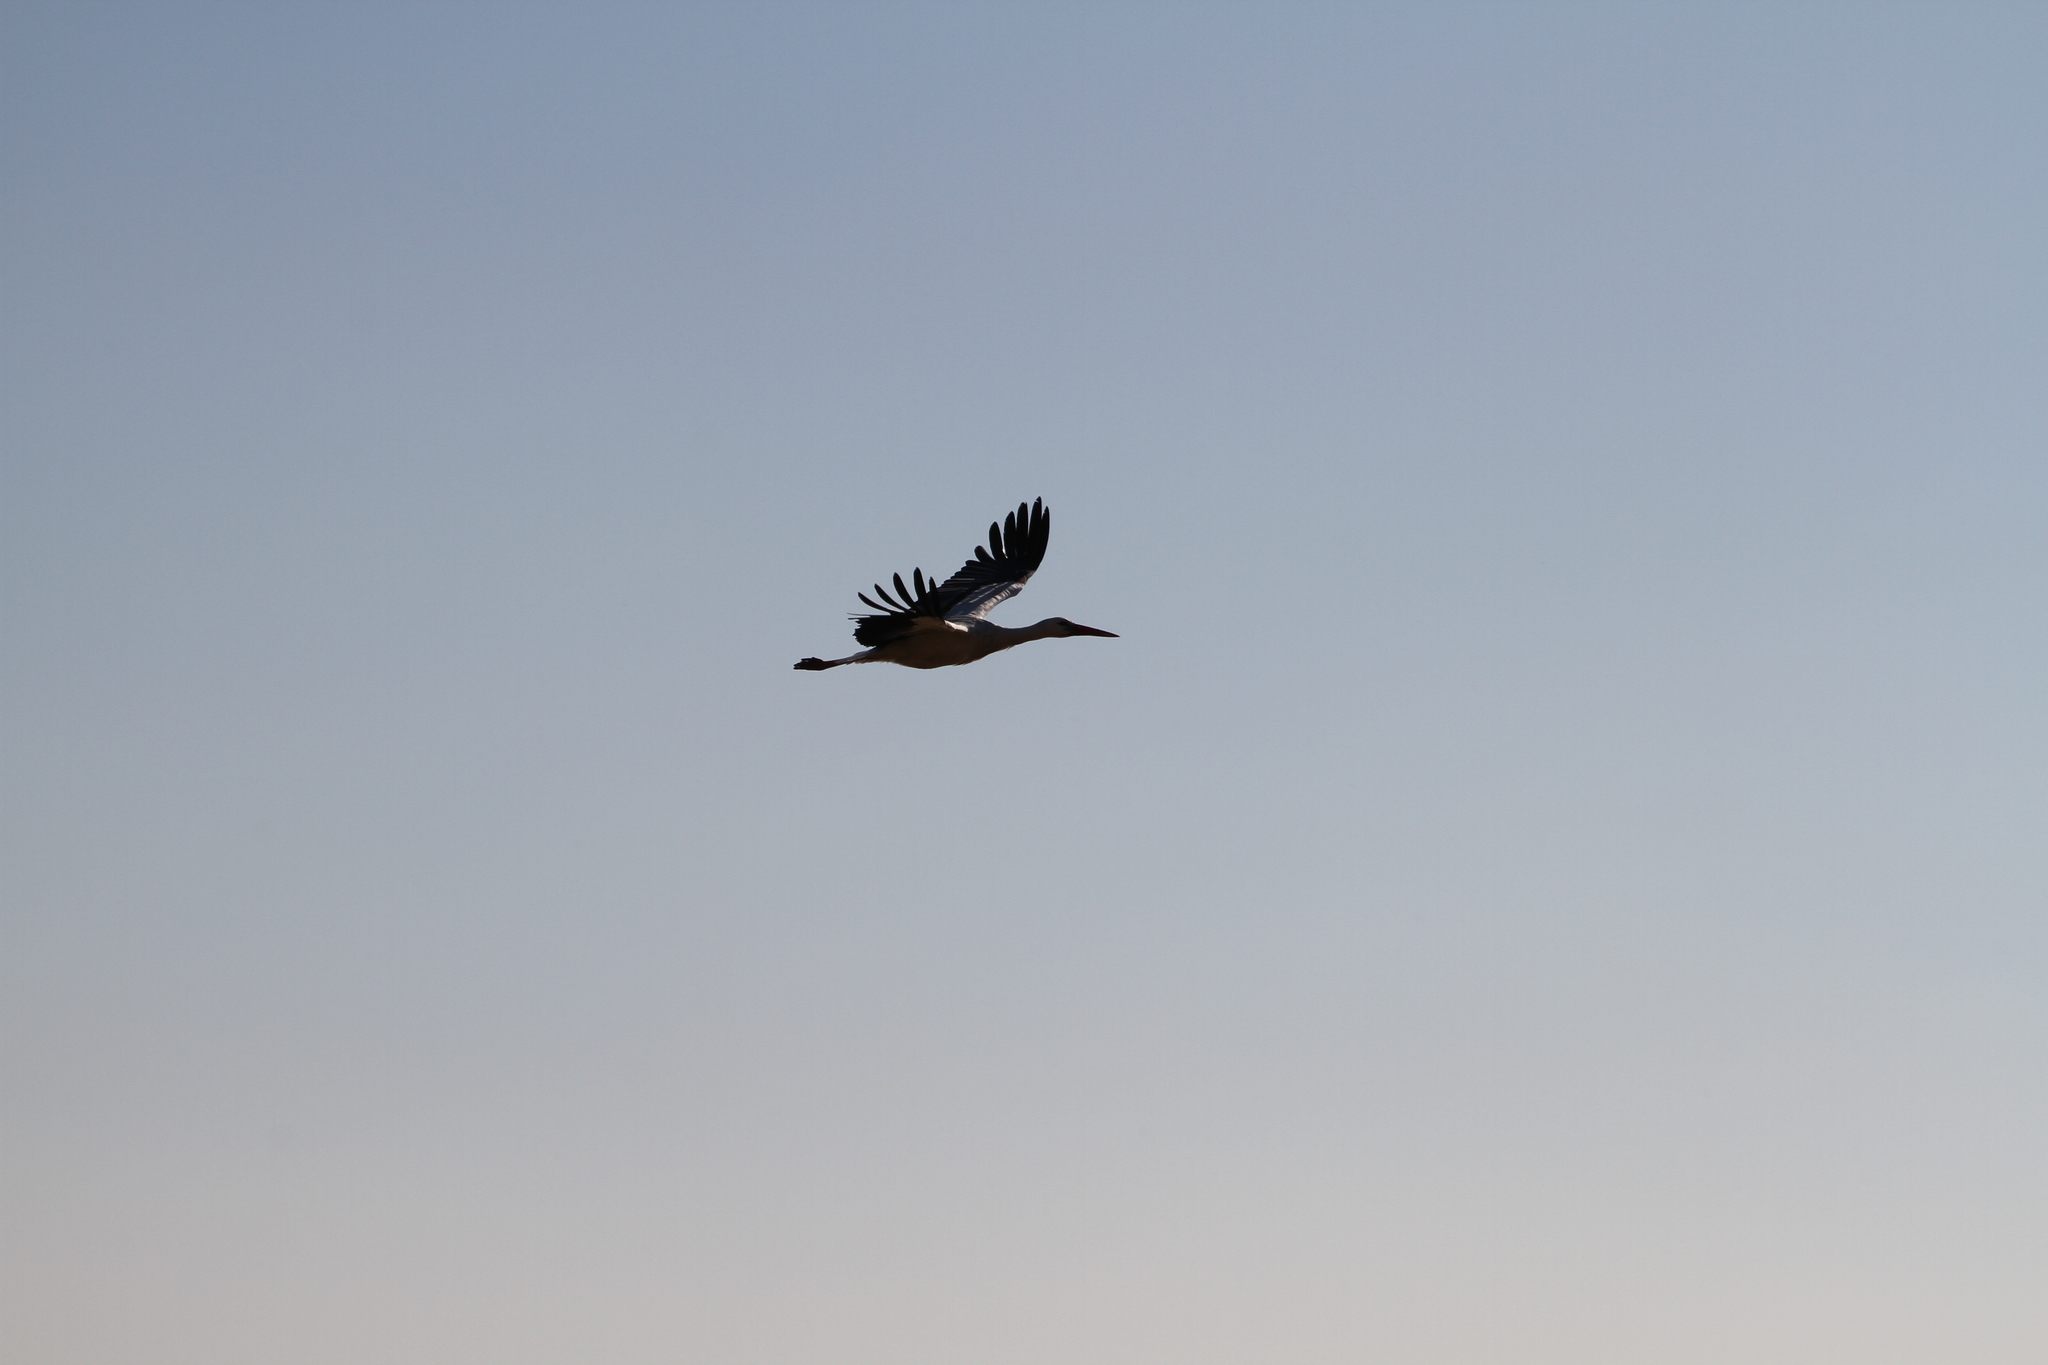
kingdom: Animalia
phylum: Chordata
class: Aves
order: Ciconiiformes
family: Ciconiidae
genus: Ciconia
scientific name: Ciconia ciconia
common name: White stork
